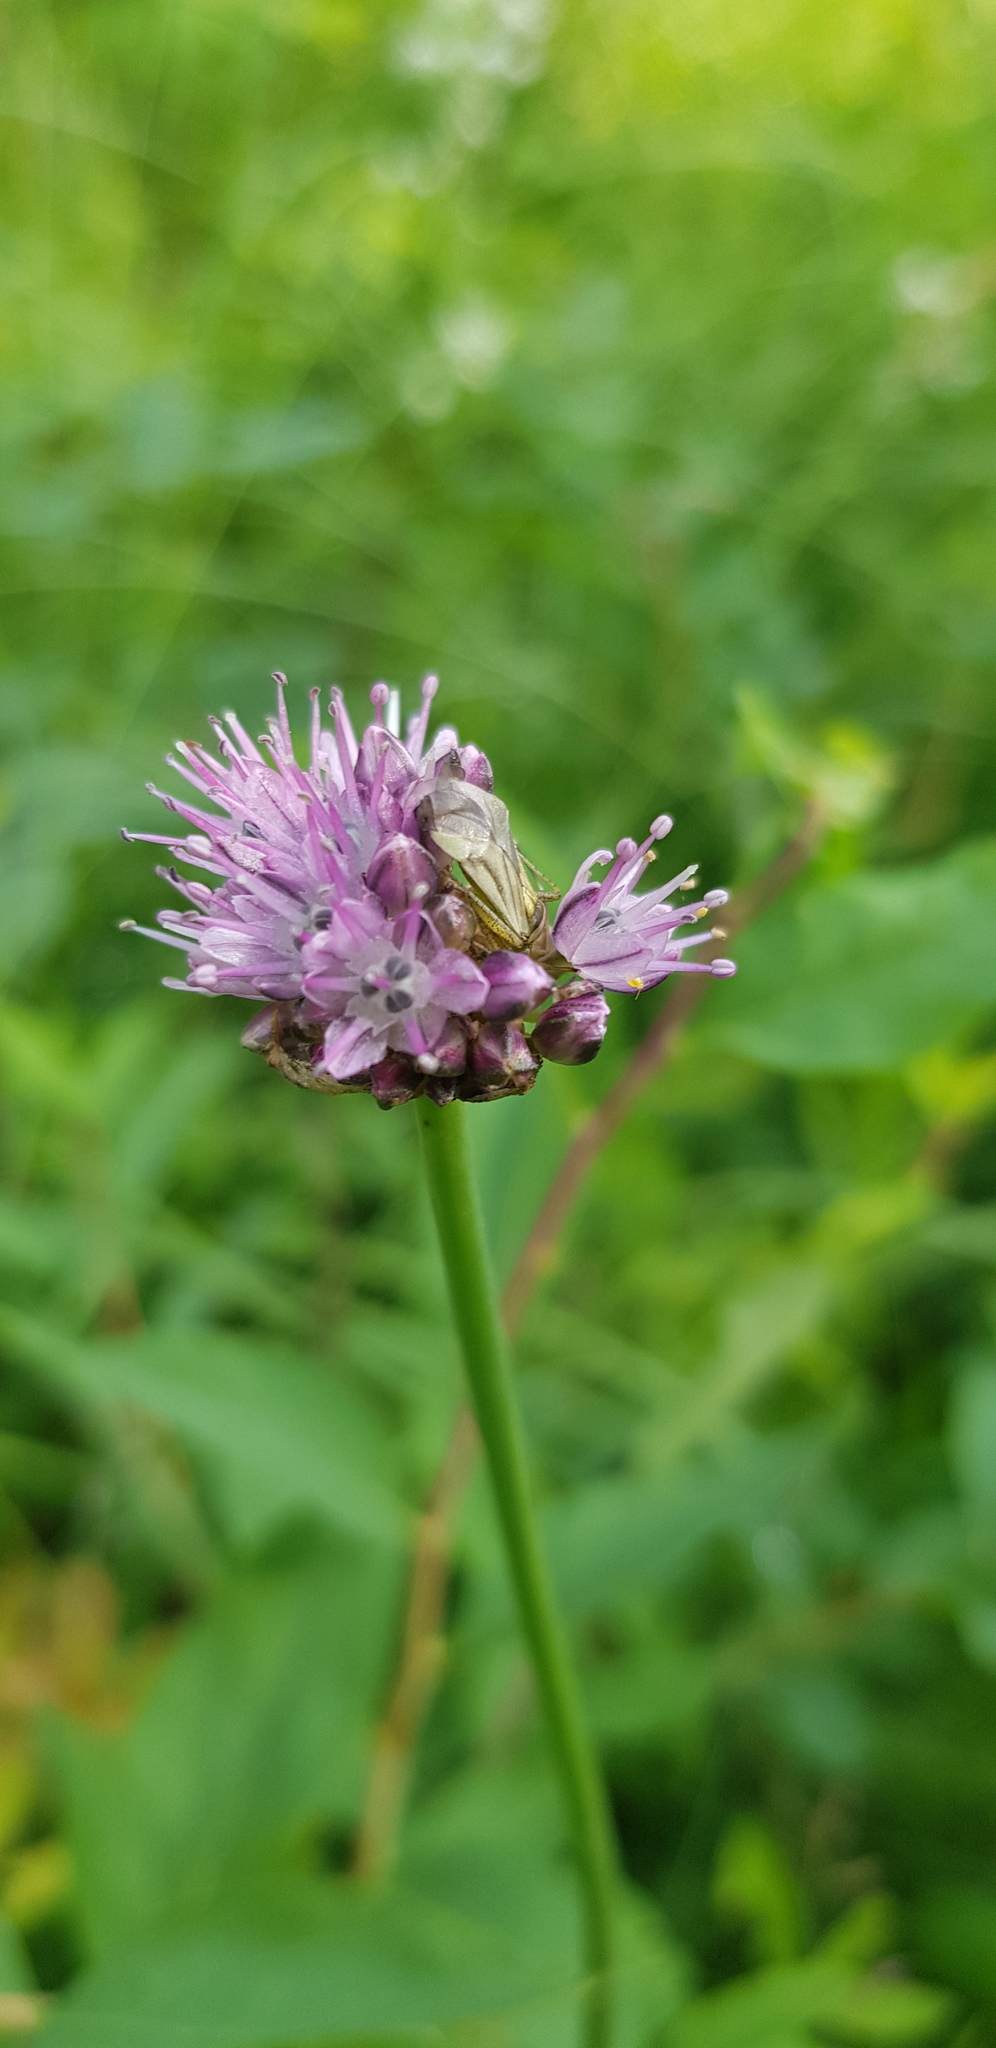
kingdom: Plantae
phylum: Tracheophyta
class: Liliopsida
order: Asparagales
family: Amaryllidaceae
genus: Allium
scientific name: Allium strictum
